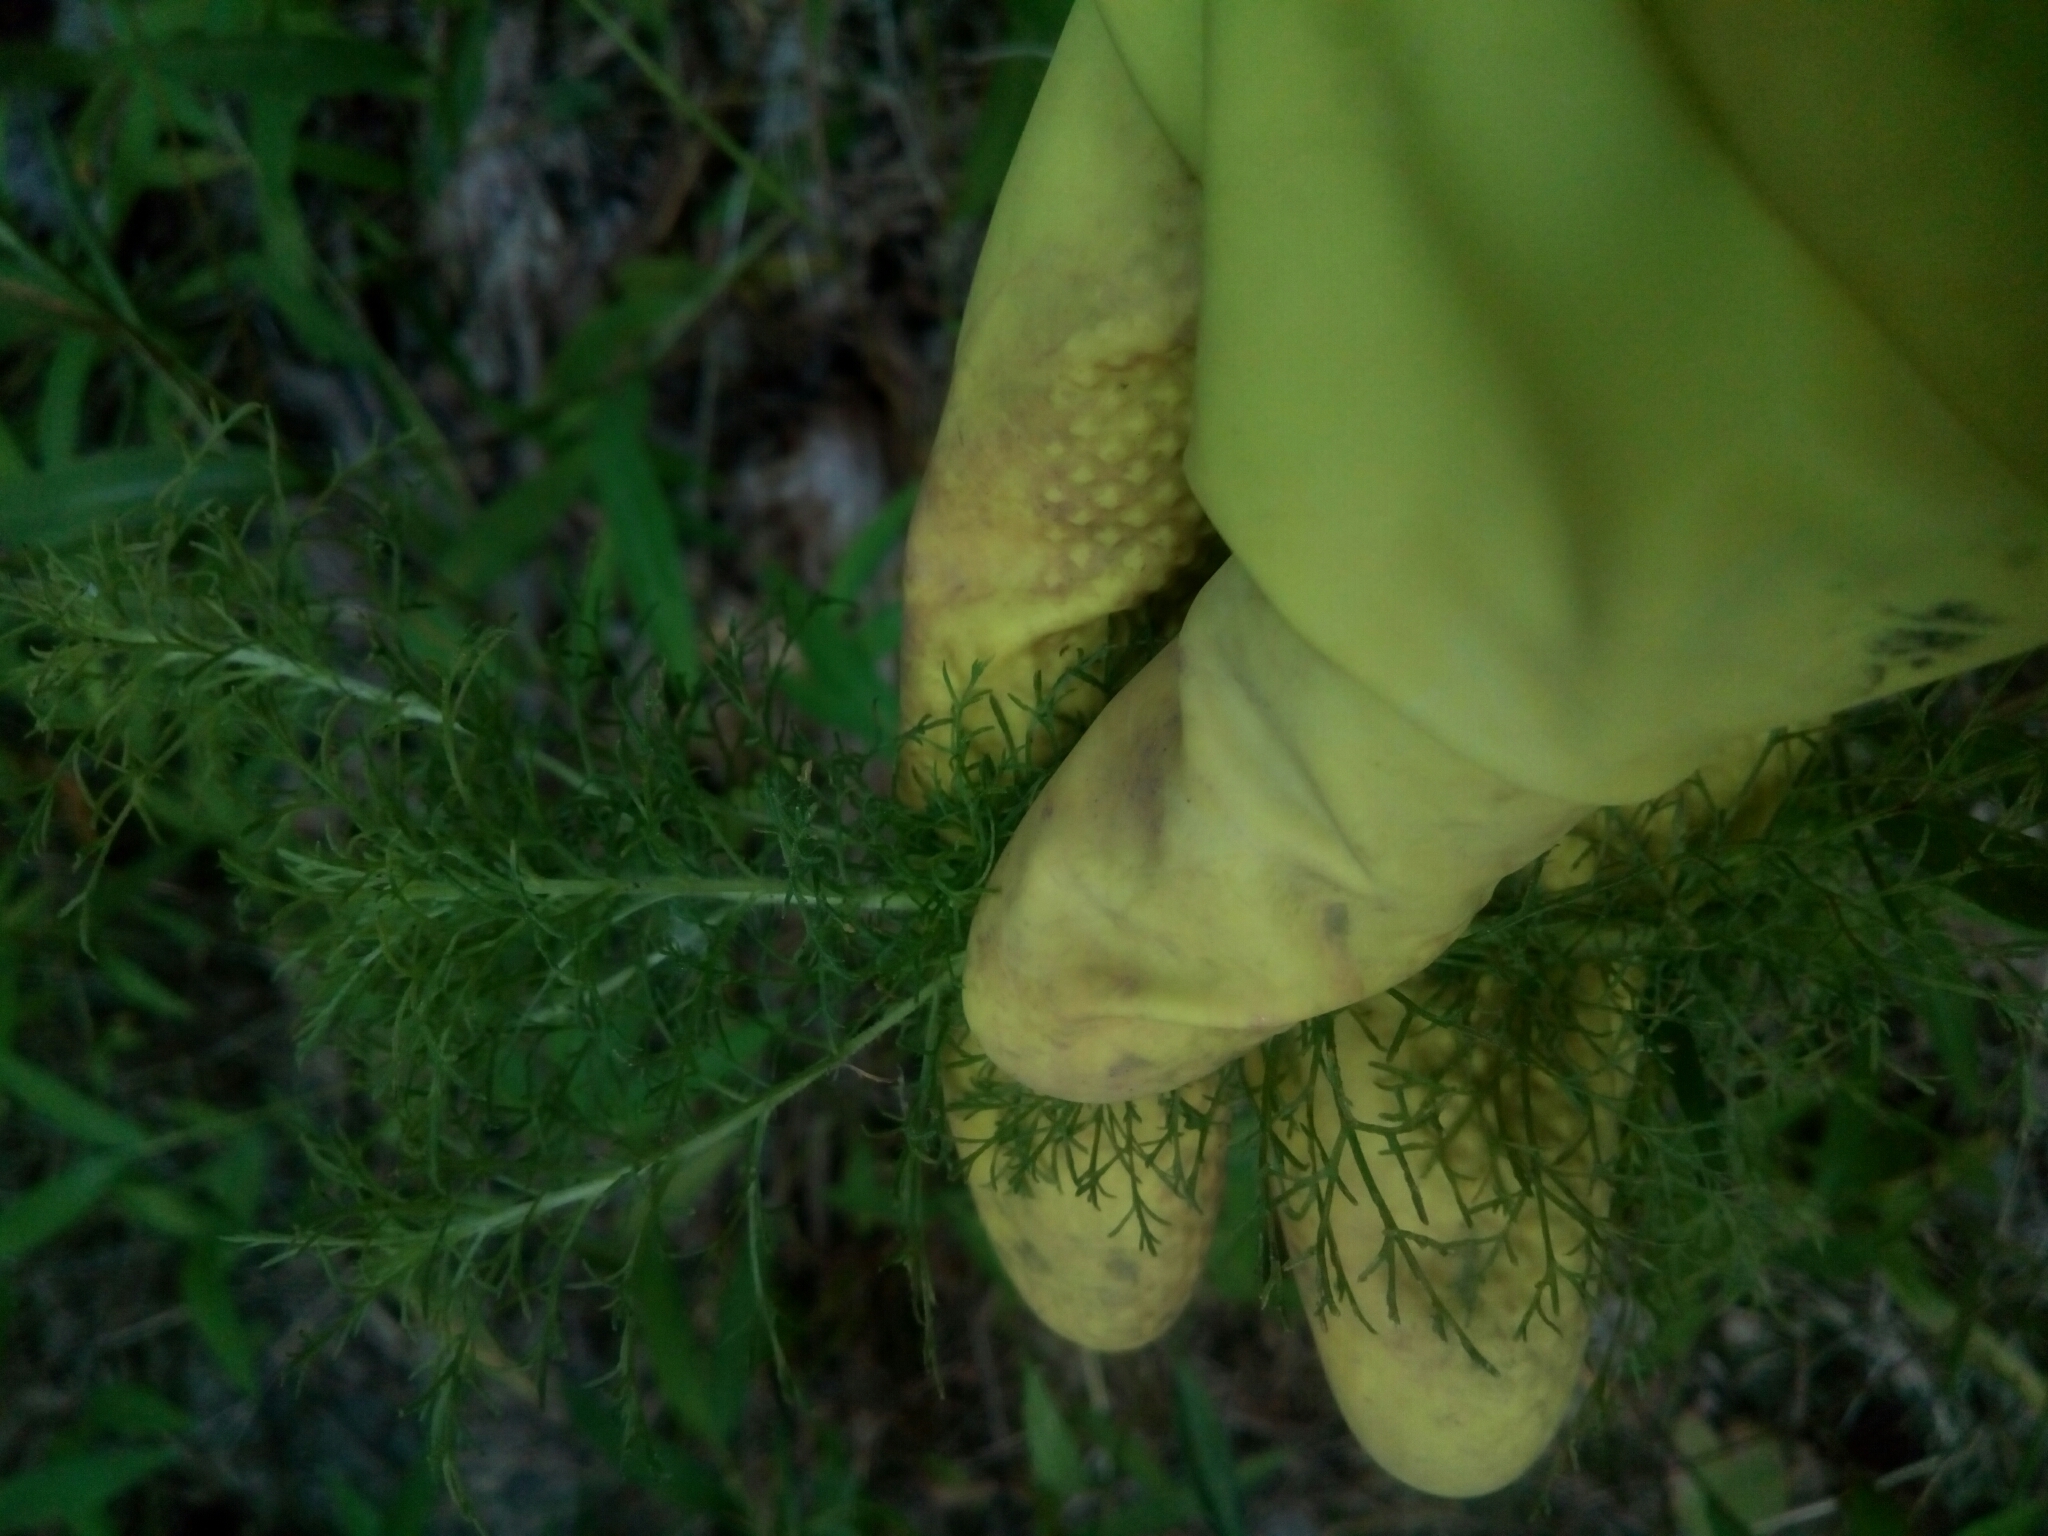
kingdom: Plantae
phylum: Tracheophyta
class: Magnoliopsida
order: Asterales
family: Asteraceae
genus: Eupatorium
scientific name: Eupatorium capillifolium
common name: Dog-fennel
